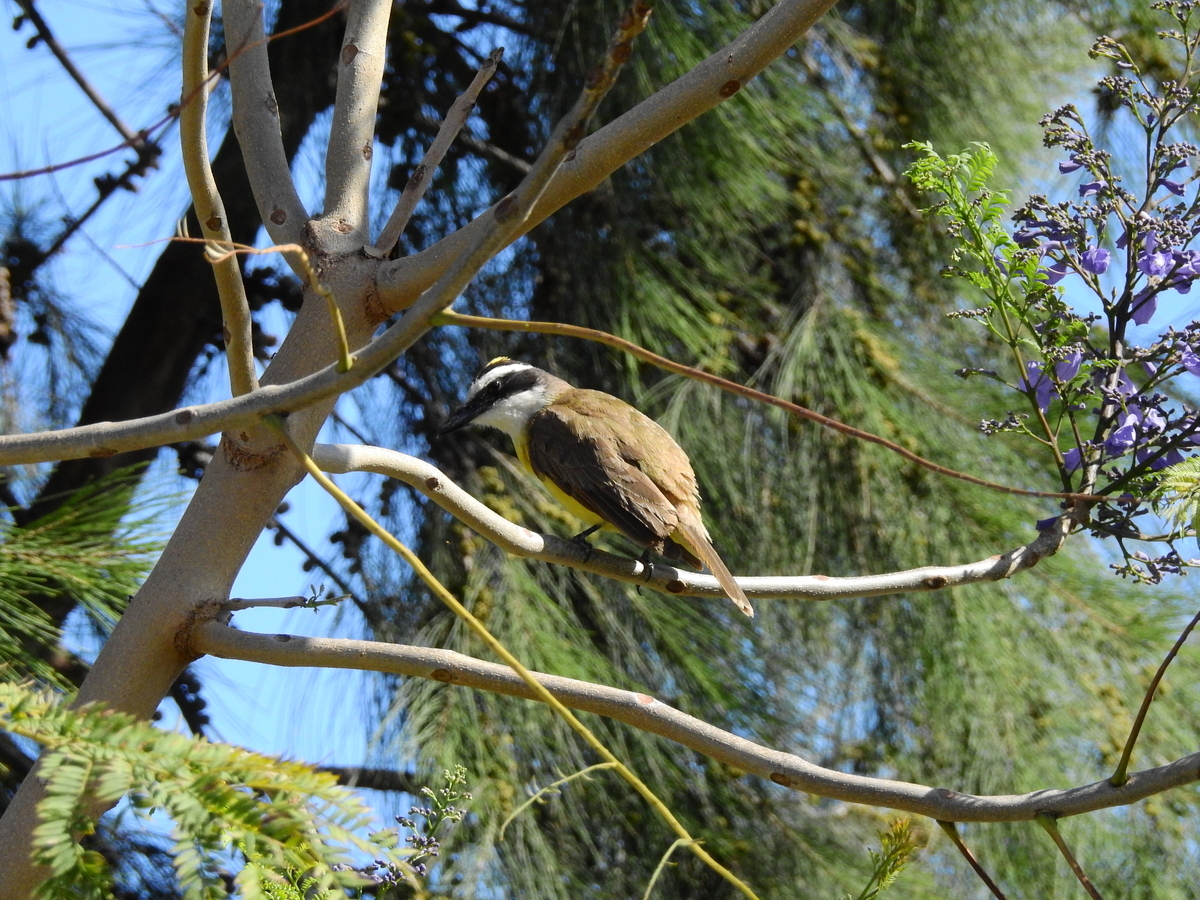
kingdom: Animalia
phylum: Chordata
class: Aves
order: Passeriformes
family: Tyrannidae
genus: Pitangus
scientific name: Pitangus sulphuratus
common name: Great kiskadee
